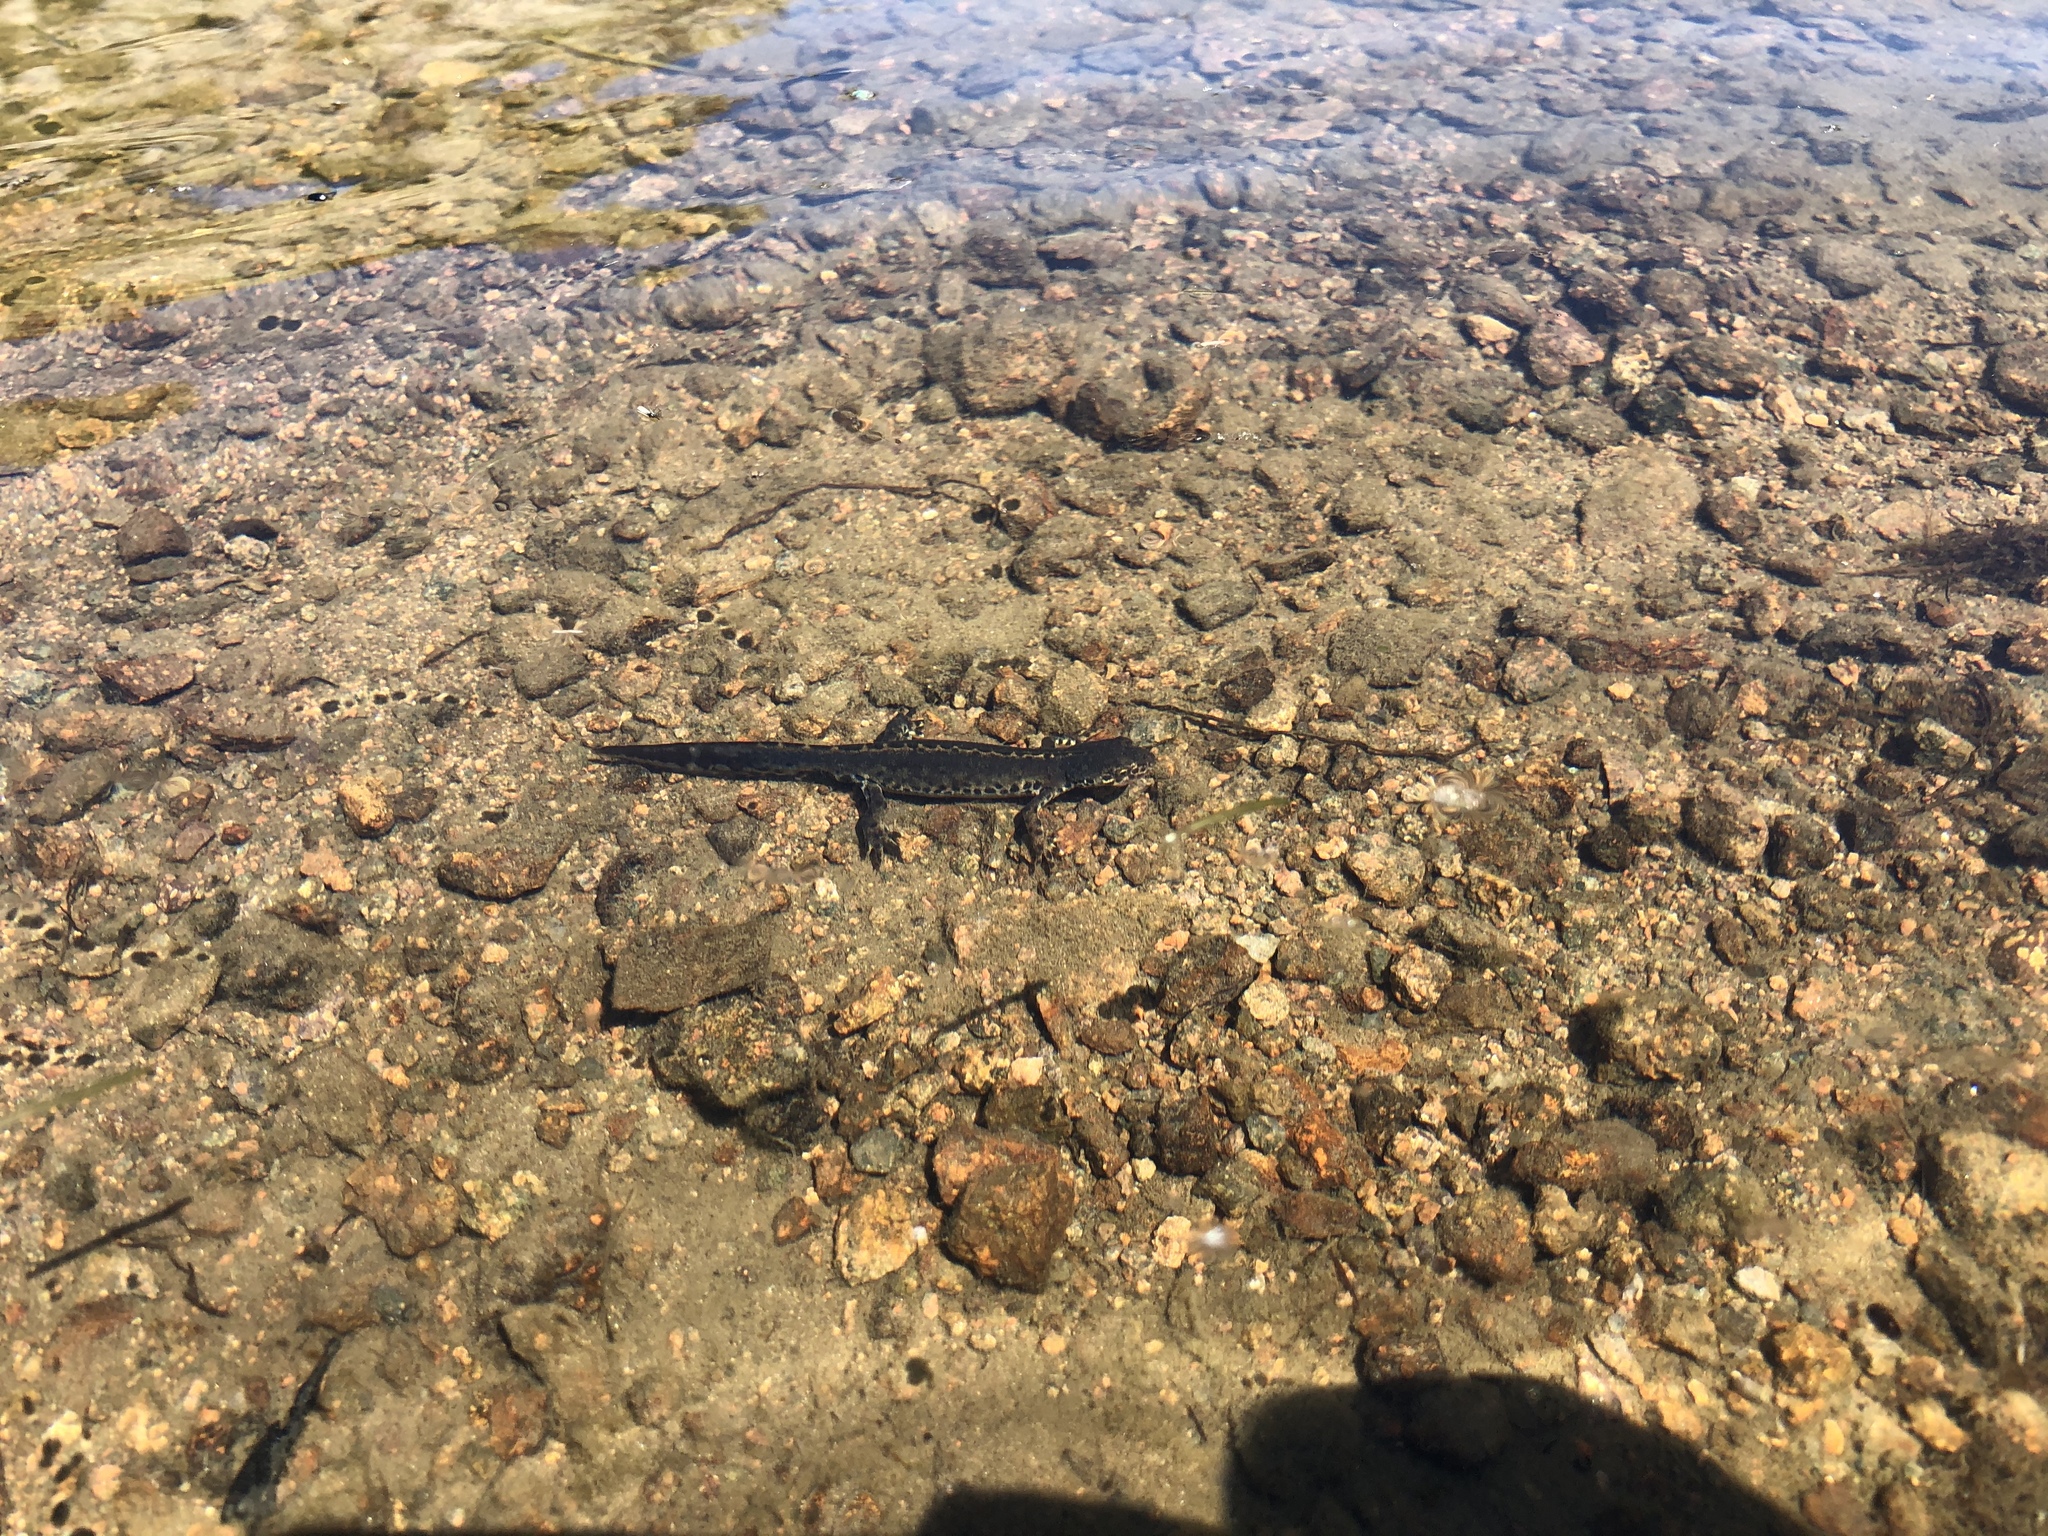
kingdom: Animalia
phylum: Chordata
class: Amphibia
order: Caudata
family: Salamandridae
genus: Ichthyosaura
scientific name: Ichthyosaura alpestris
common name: Alpine newt
